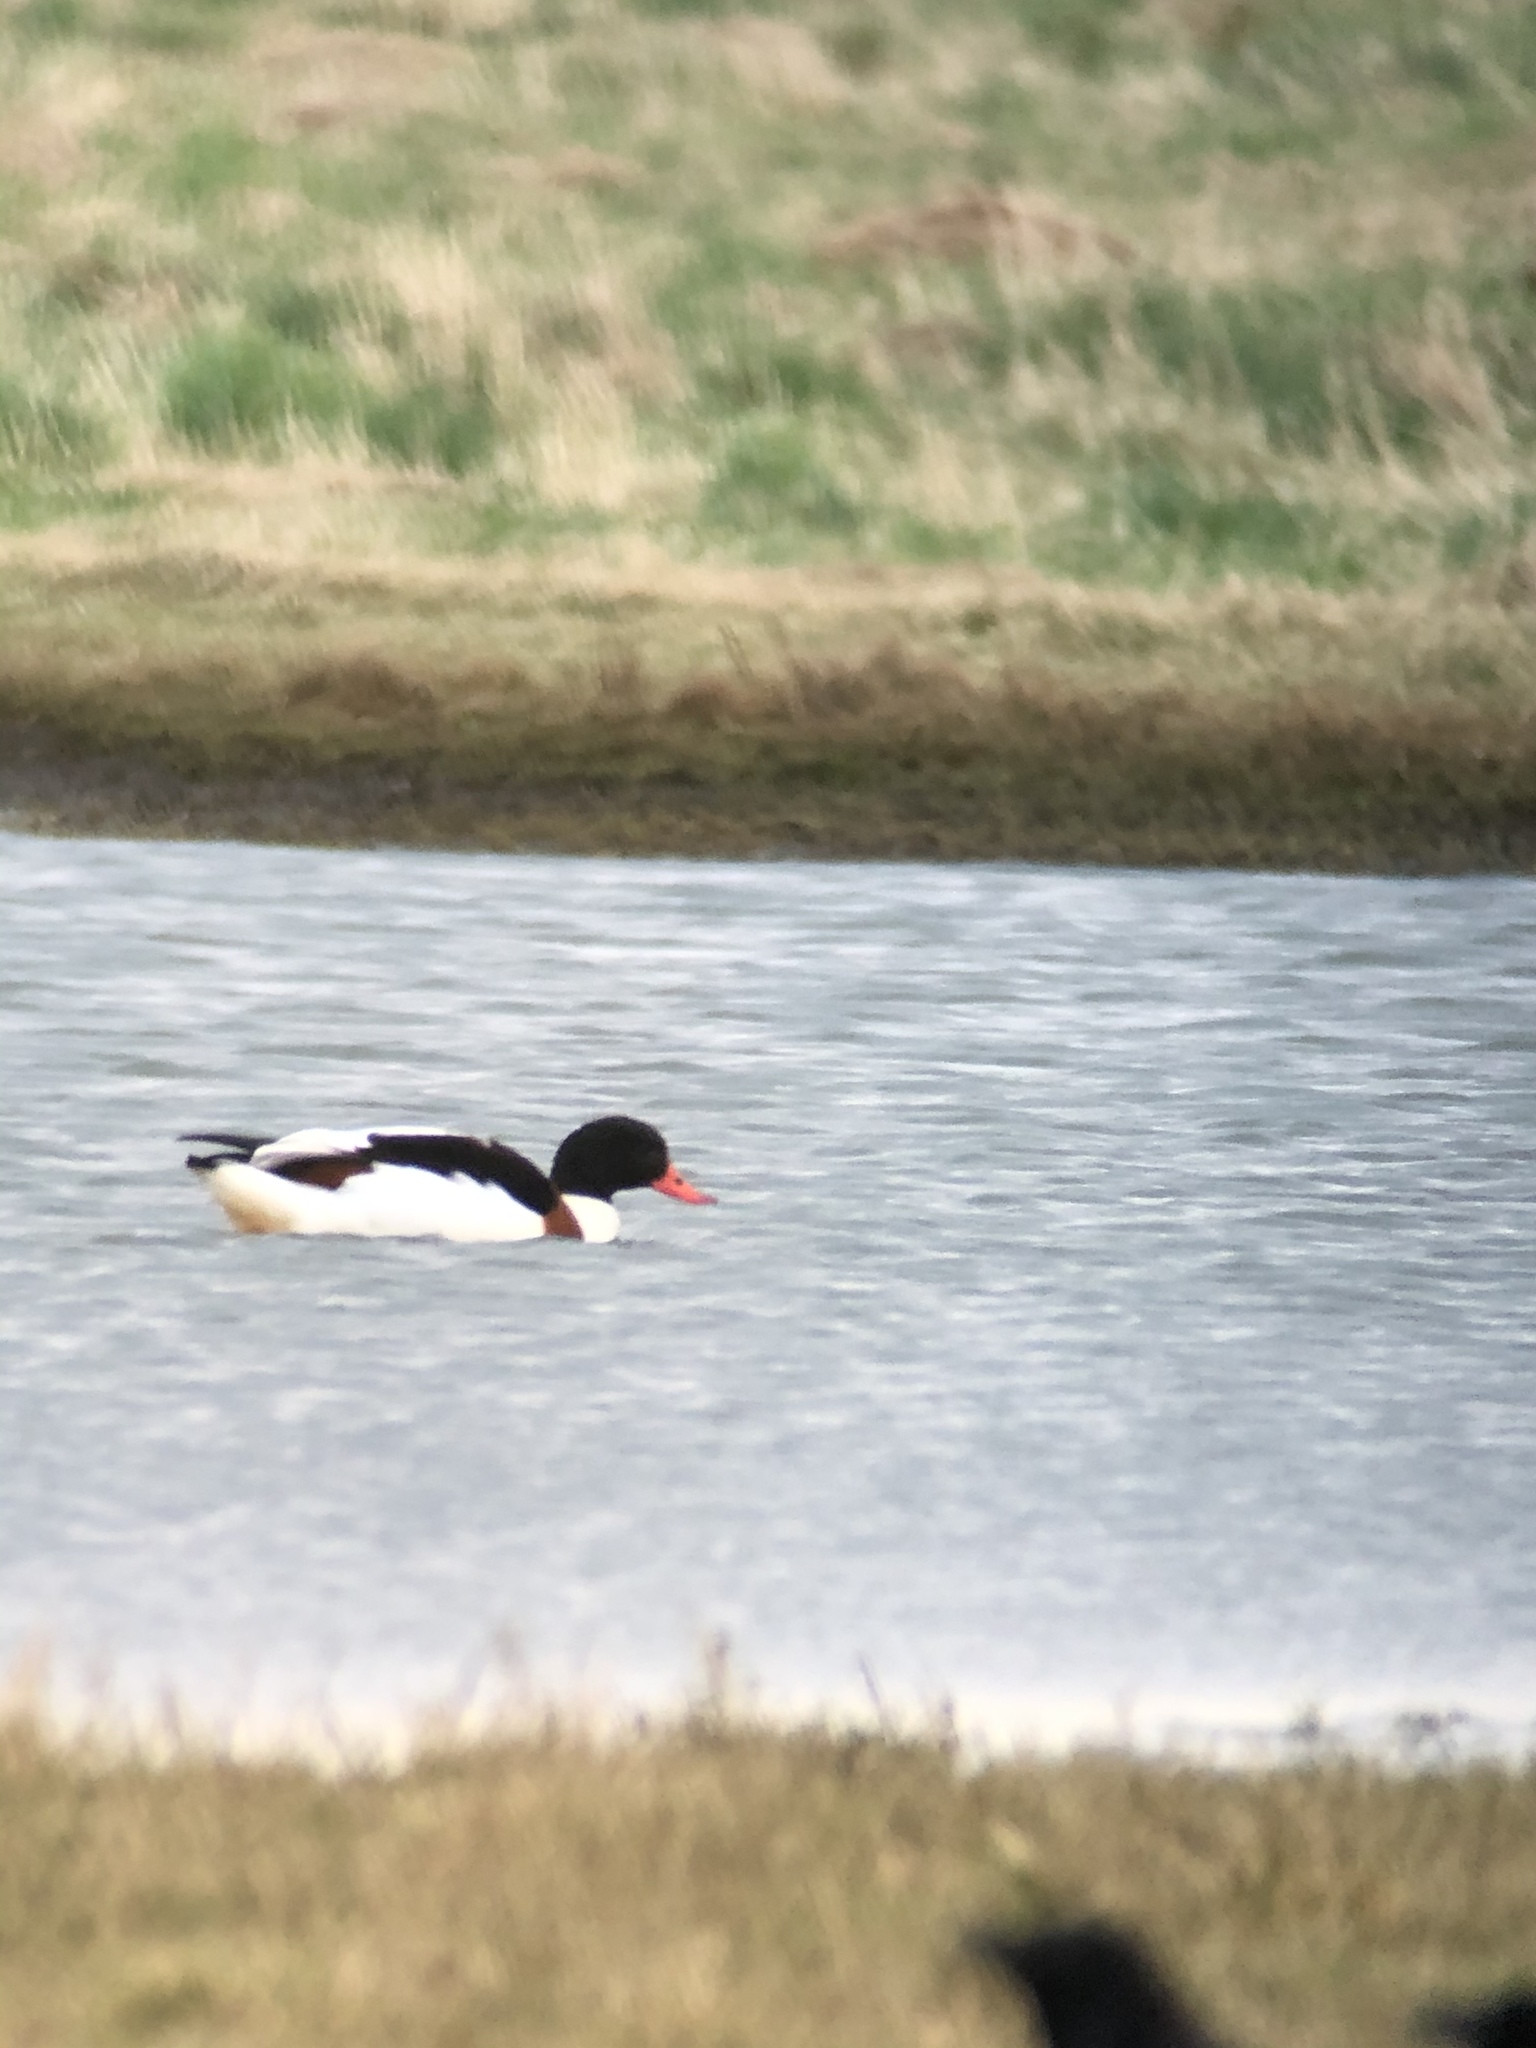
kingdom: Animalia
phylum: Chordata
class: Aves
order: Anseriformes
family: Anatidae
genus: Tadorna
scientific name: Tadorna tadorna
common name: Common shelduck
